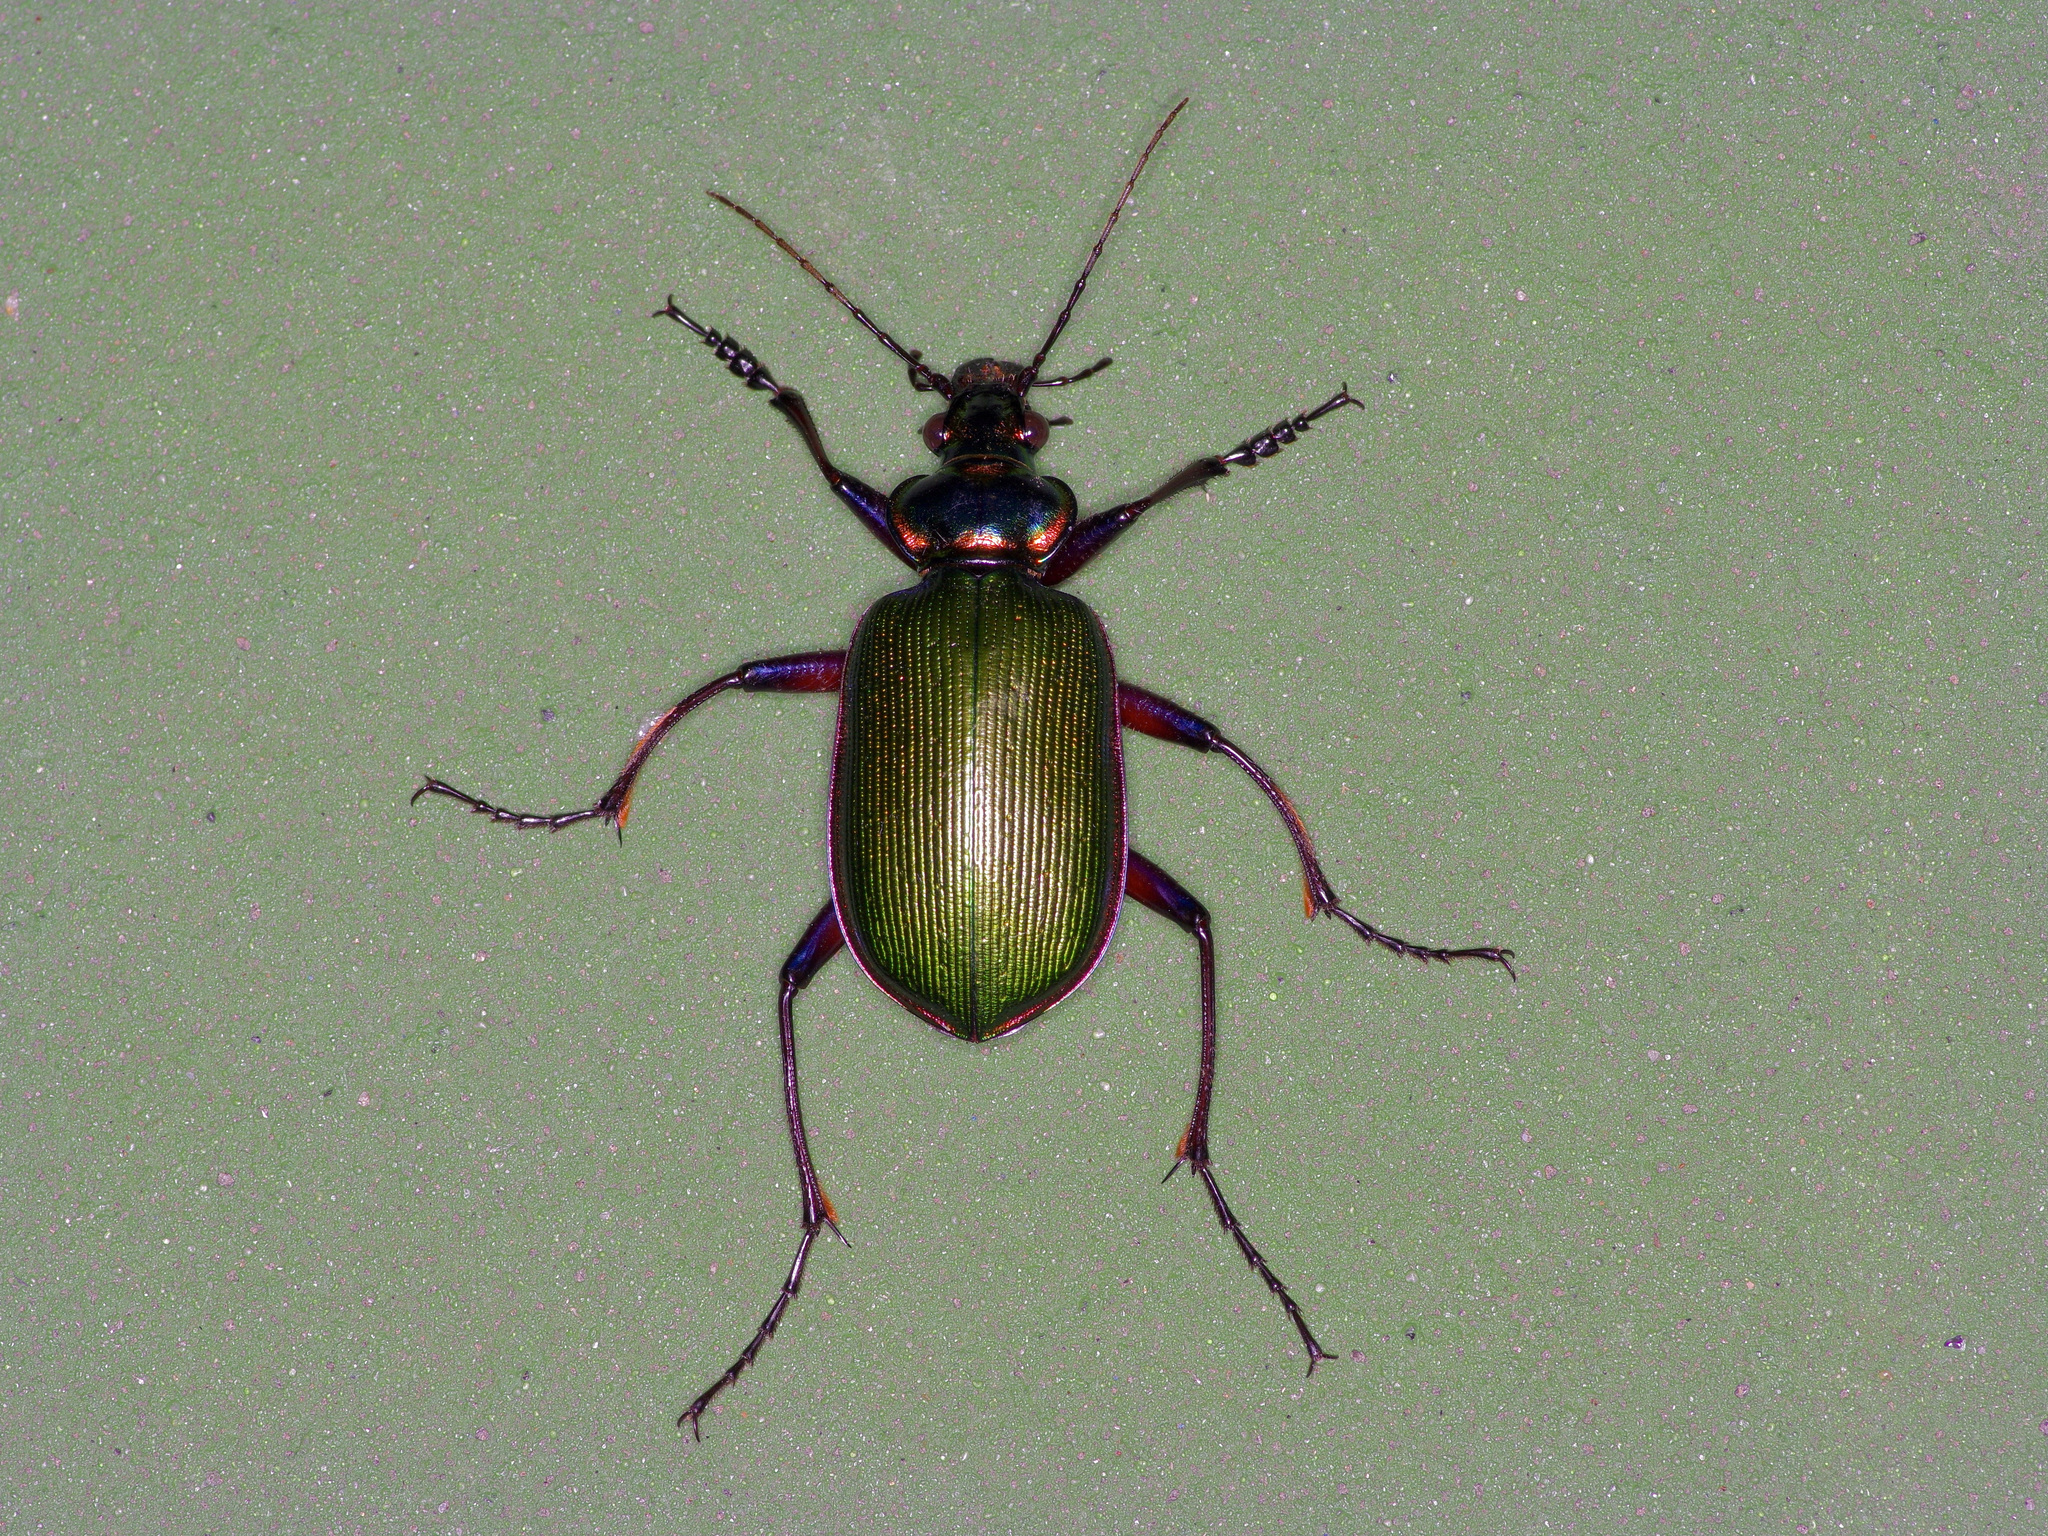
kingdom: Animalia
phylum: Arthropoda
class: Insecta
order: Coleoptera
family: Carabidae
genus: Calosoma
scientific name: Calosoma scrutator
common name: Fiery searcher beetle
